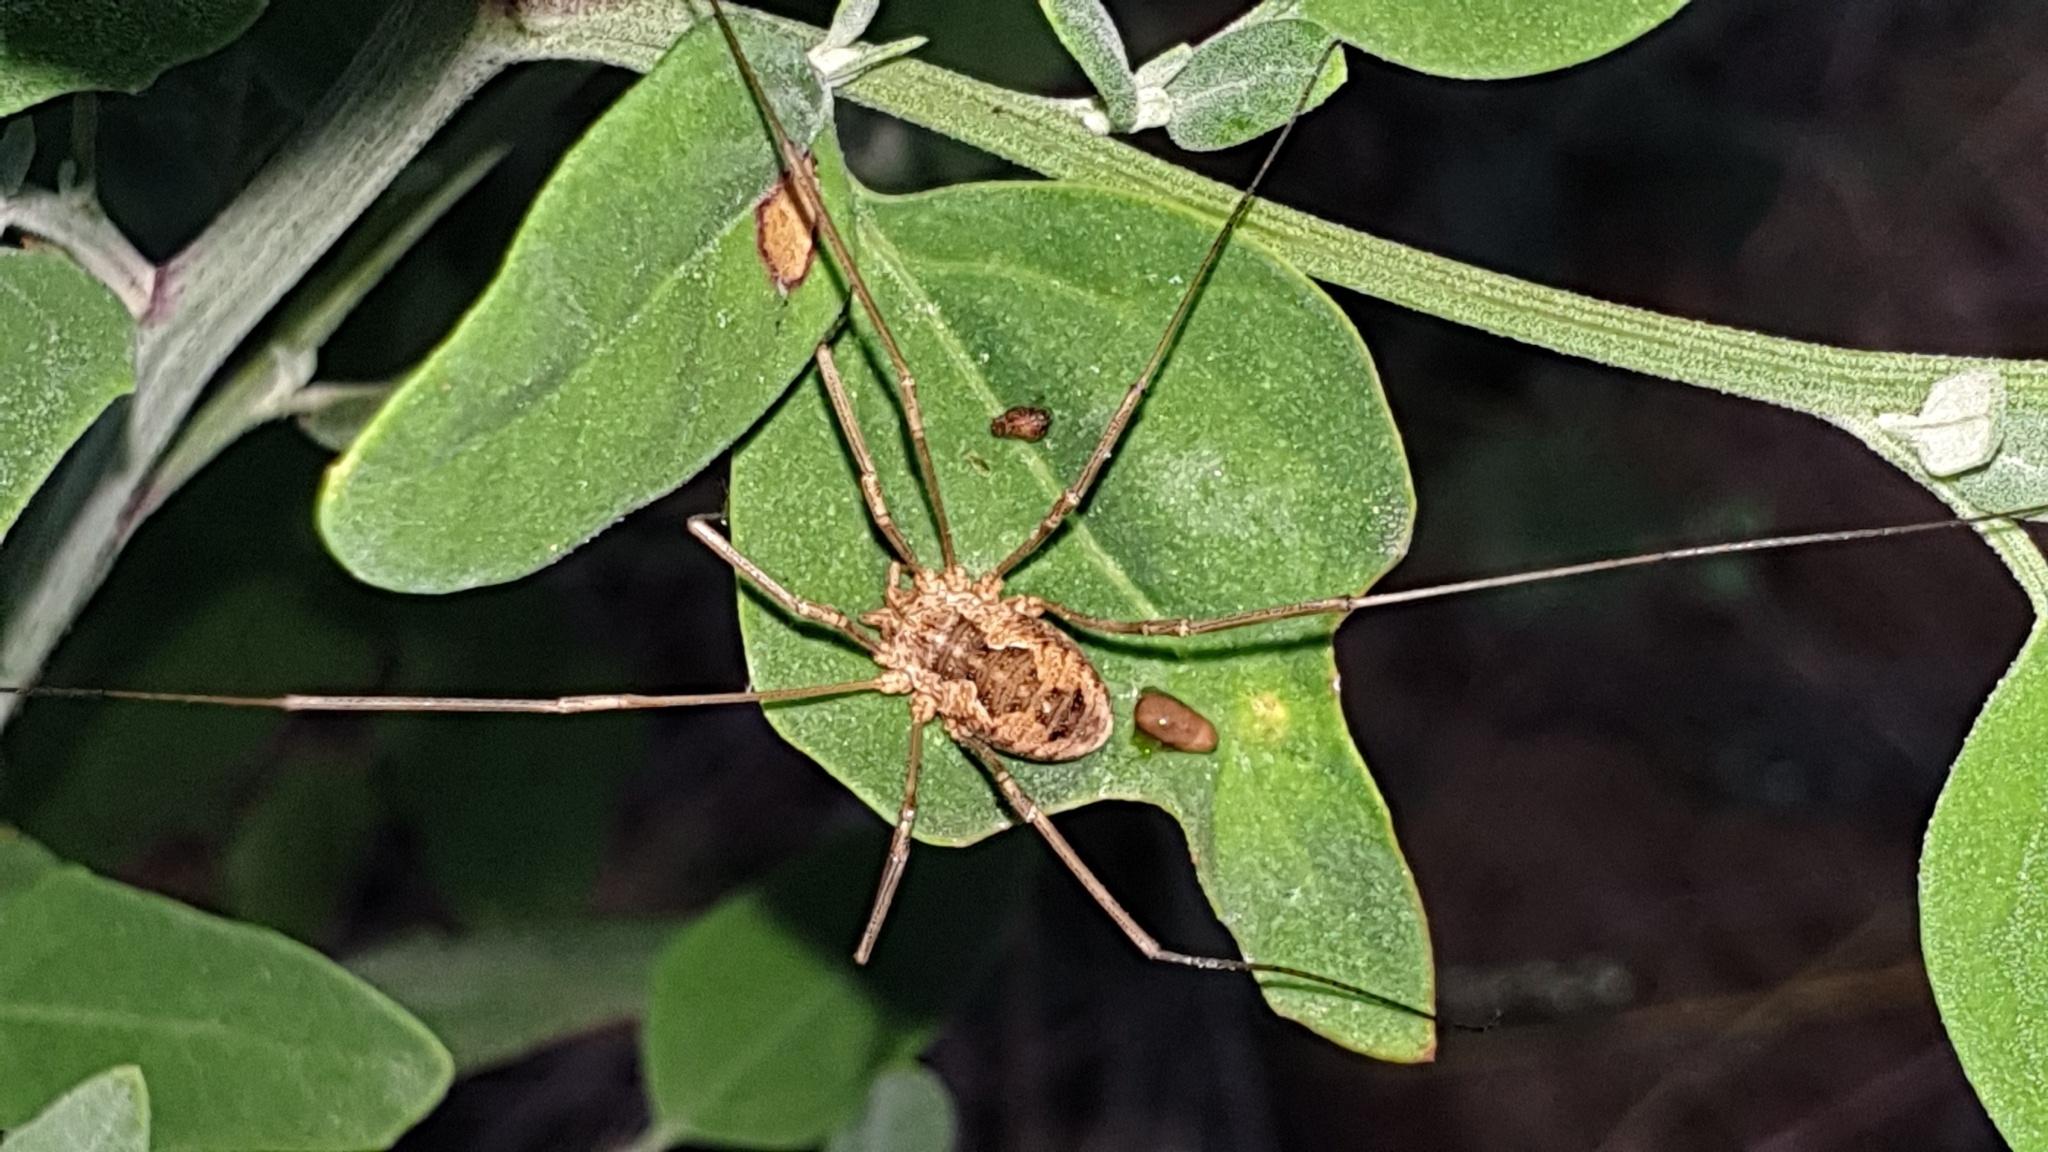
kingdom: Animalia
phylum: Arthropoda
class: Arachnida
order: Opiliones
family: Phalangiidae
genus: Phalangium
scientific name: Phalangium opilio
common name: Daddy longleg
